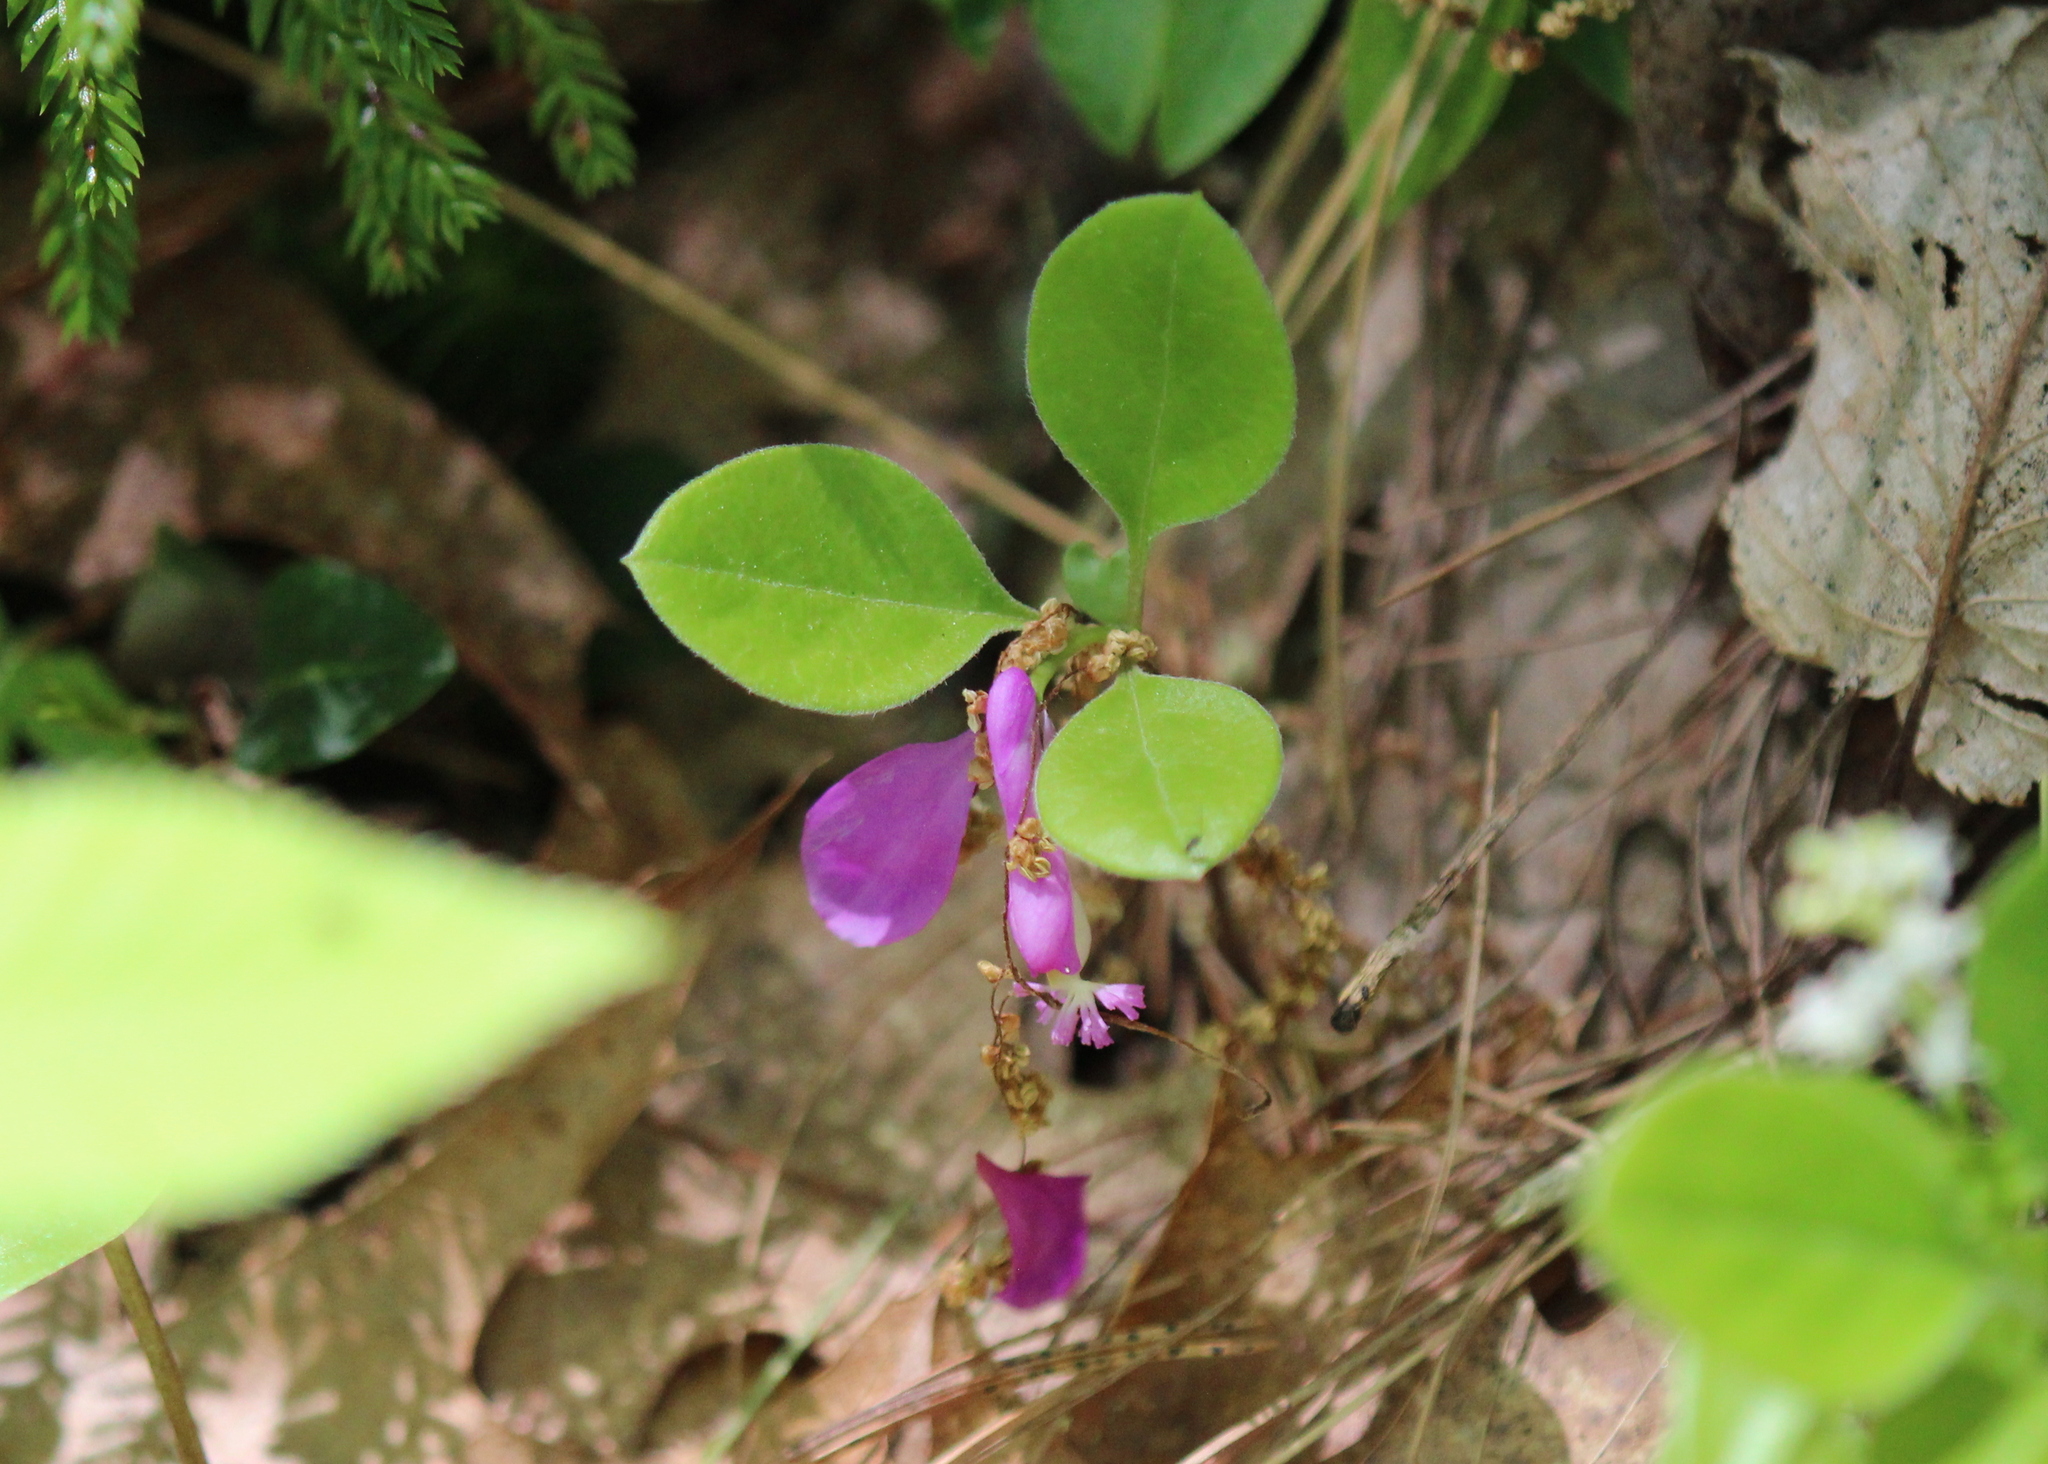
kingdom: Plantae
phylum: Tracheophyta
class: Magnoliopsida
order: Fabales
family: Polygalaceae
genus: Polygaloides
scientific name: Polygaloides paucifolia
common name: Bird-on-the-wing
